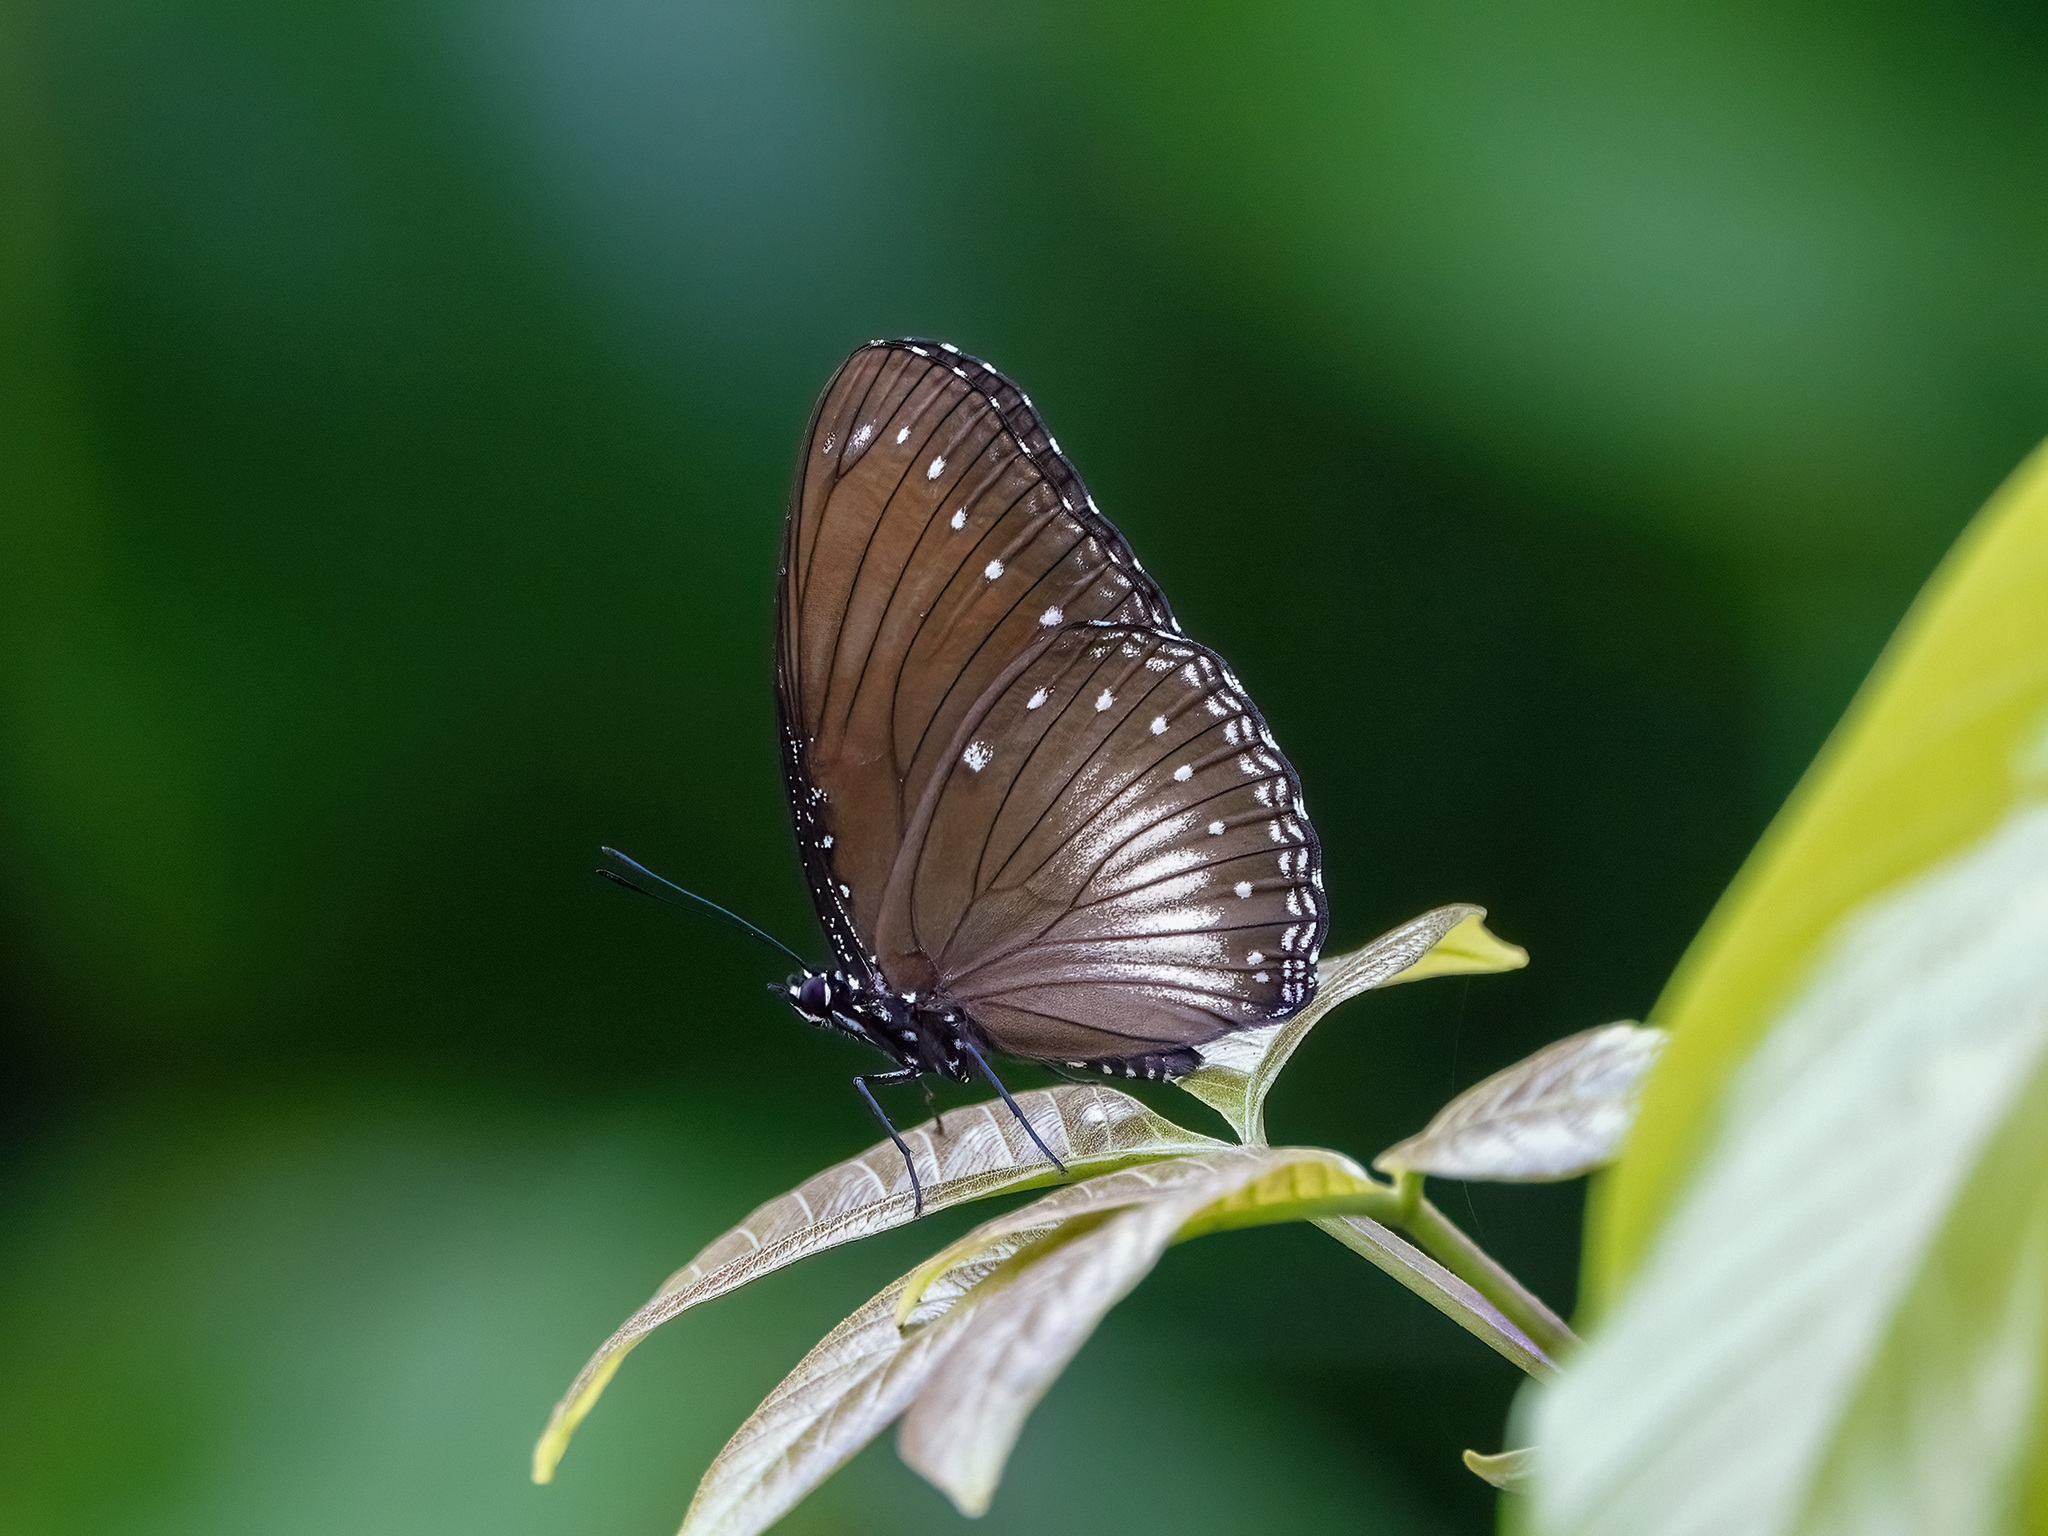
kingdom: Animalia
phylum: Arthropoda
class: Insecta
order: Lepidoptera
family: Nymphalidae
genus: Hypolimnas
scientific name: Hypolimnas anomala
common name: Malayan eggfly
